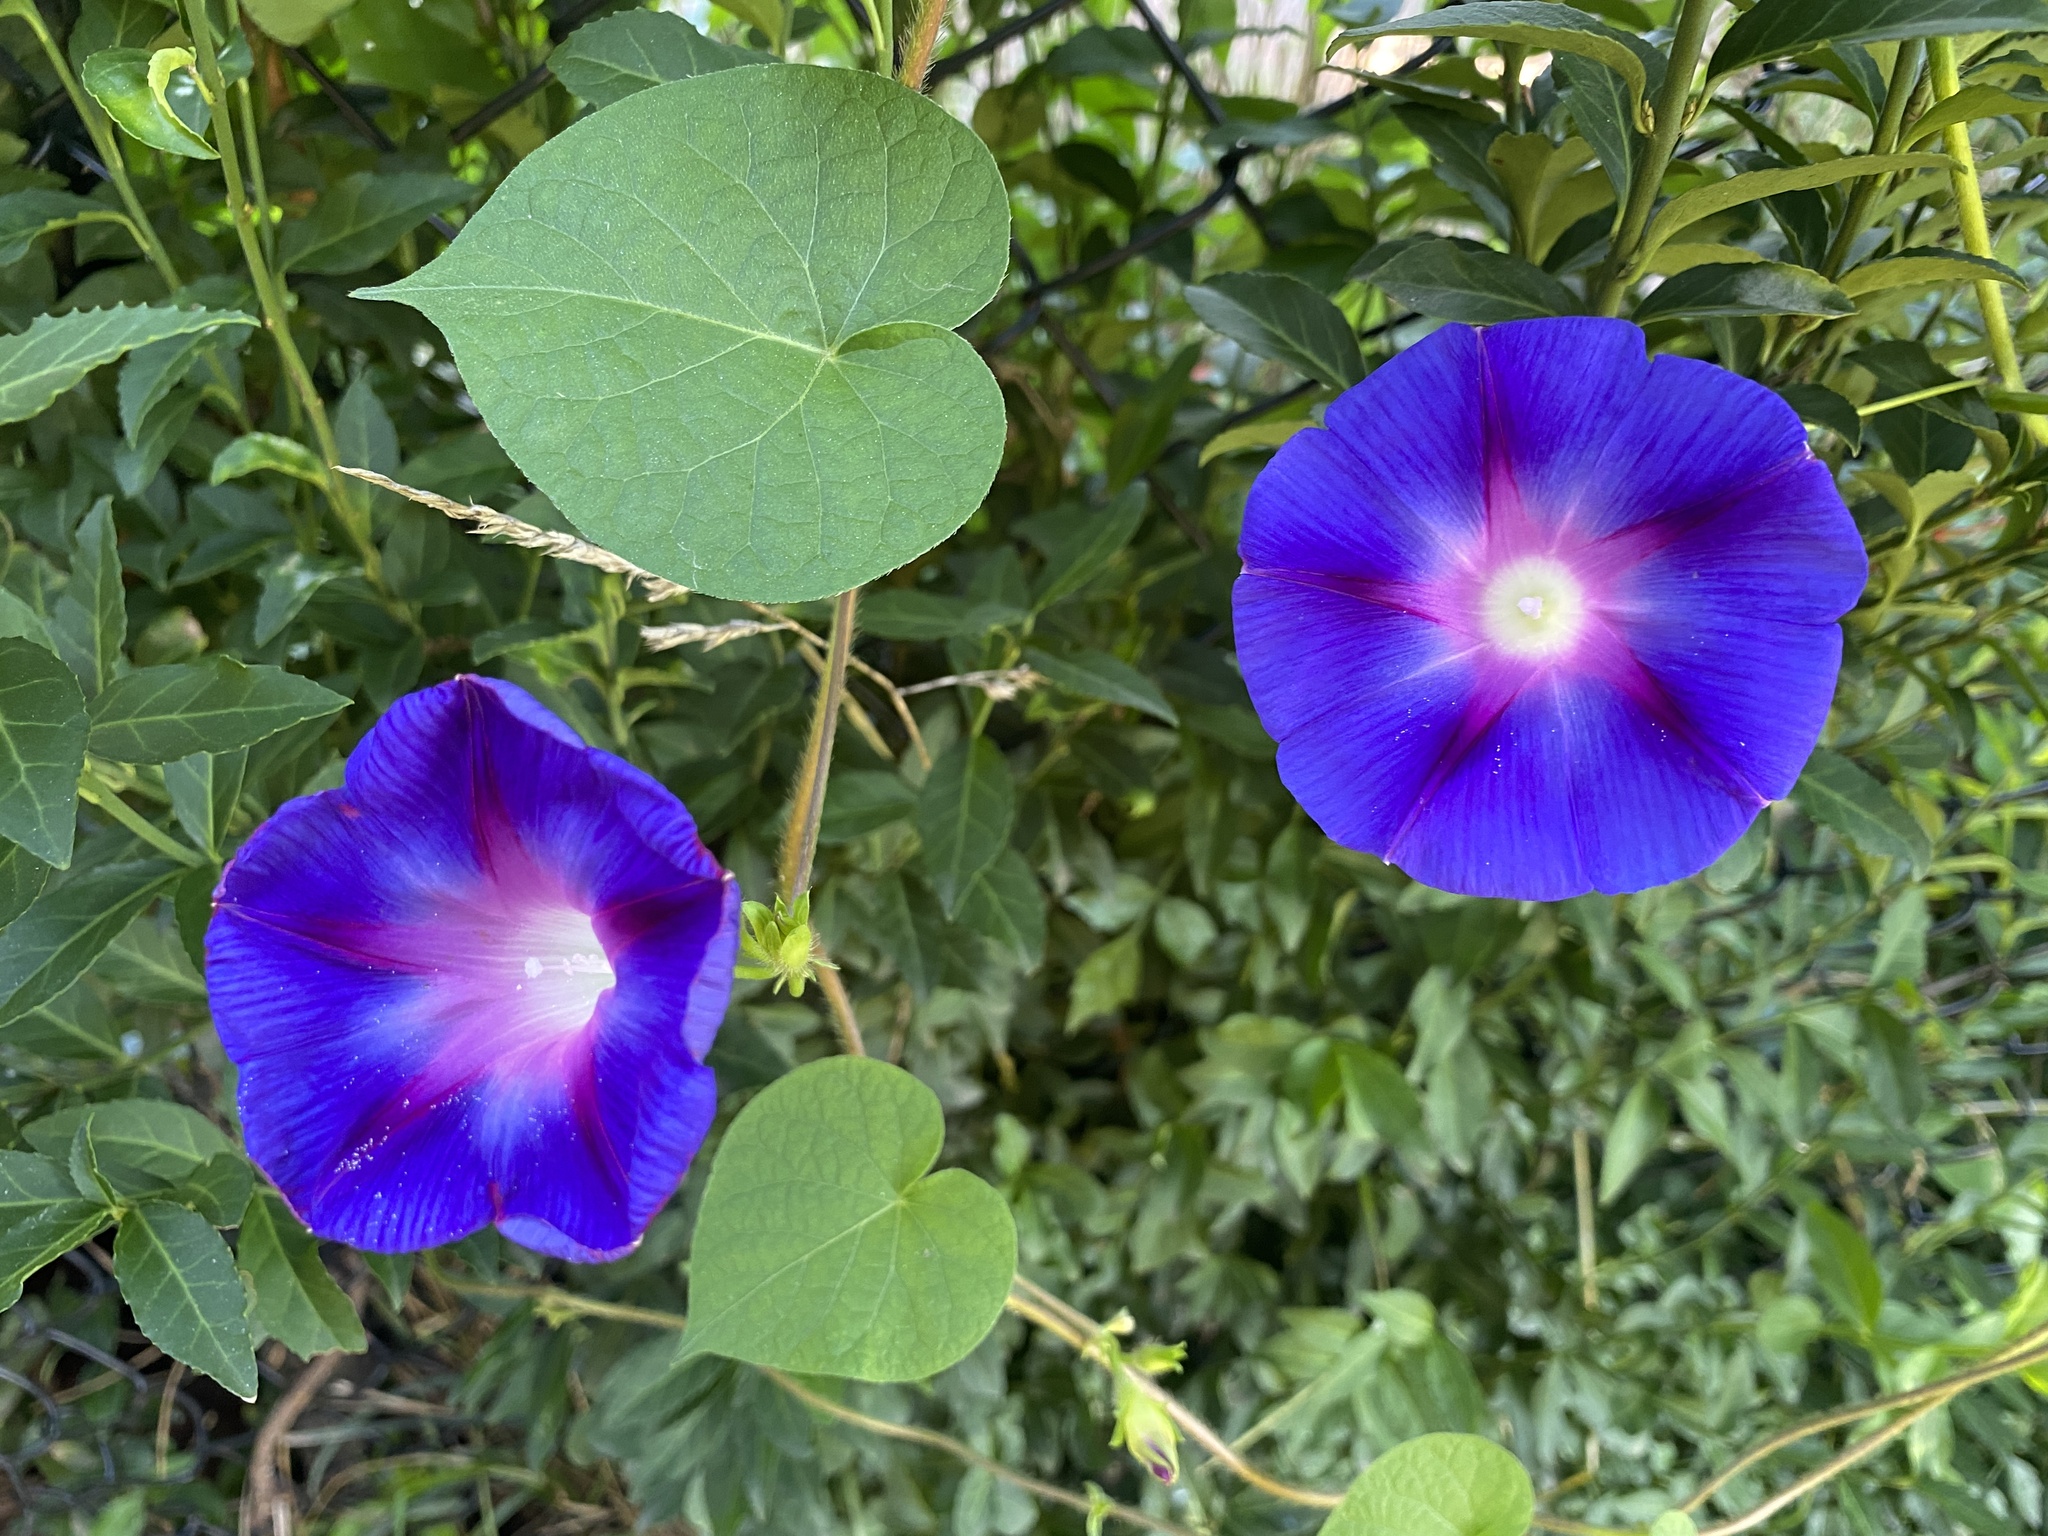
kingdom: Plantae
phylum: Tracheophyta
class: Magnoliopsida
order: Solanales
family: Convolvulaceae
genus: Ipomoea
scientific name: Ipomoea purpurea
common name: Common morning-glory
